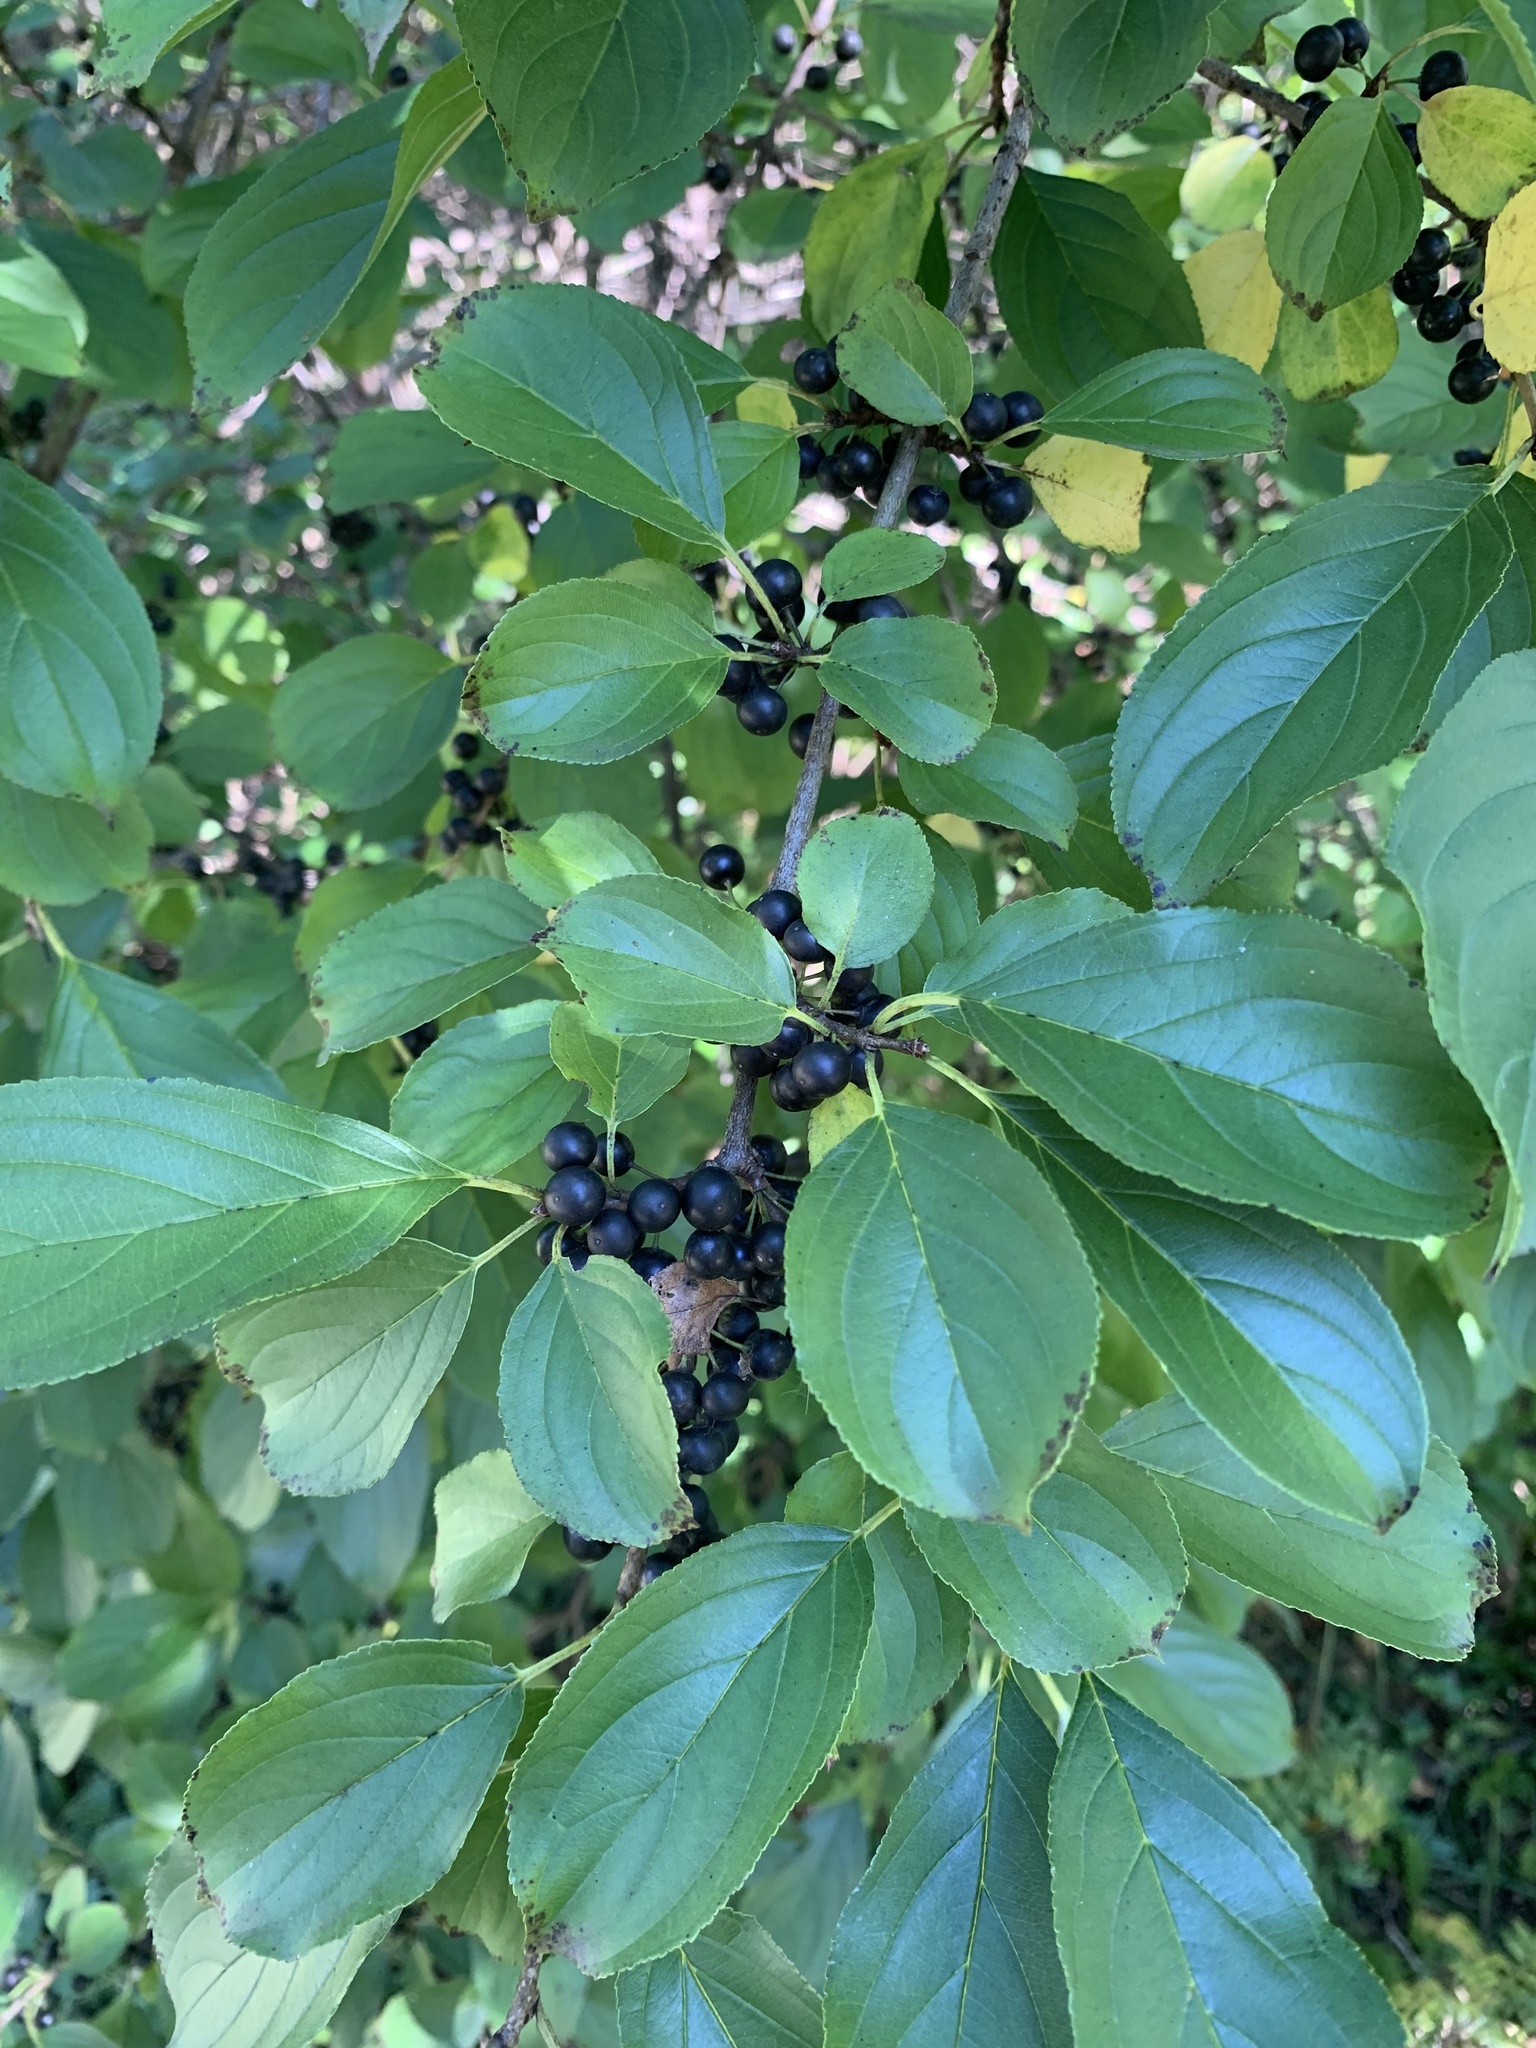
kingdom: Plantae
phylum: Tracheophyta
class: Magnoliopsida
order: Rosales
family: Rhamnaceae
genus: Rhamnus
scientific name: Rhamnus cathartica
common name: Common buckthorn
